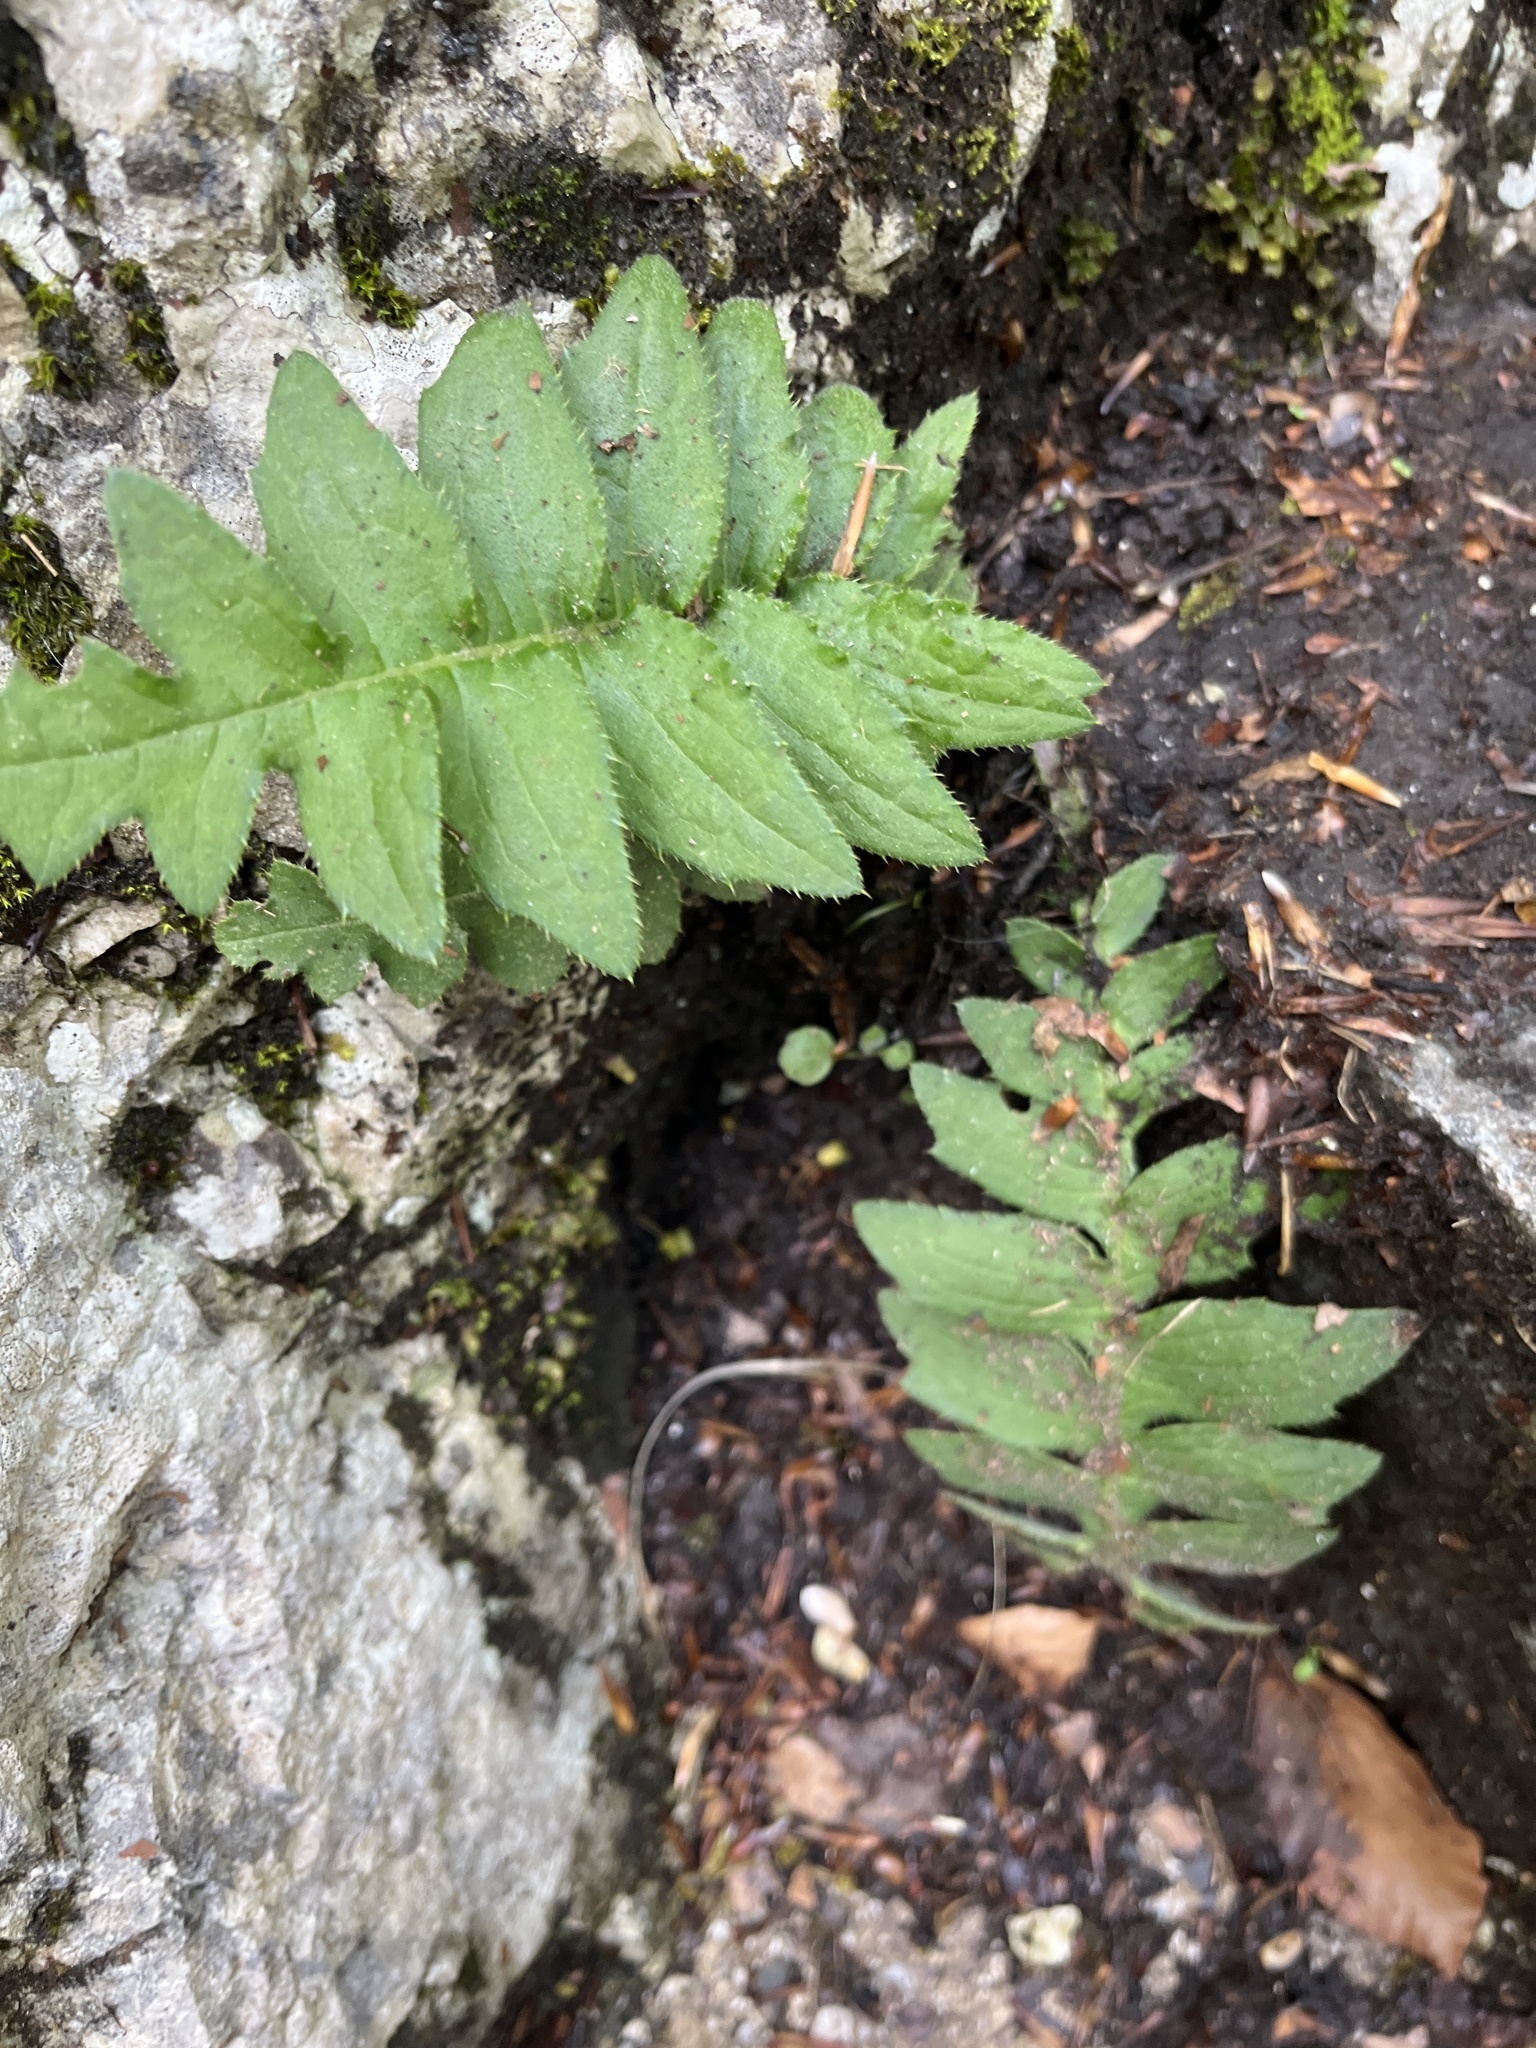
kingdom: Plantae
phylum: Tracheophyta
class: Magnoliopsida
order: Asterales
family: Asteraceae
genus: Cirsium
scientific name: Cirsium erisithales
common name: Yellow thistle
